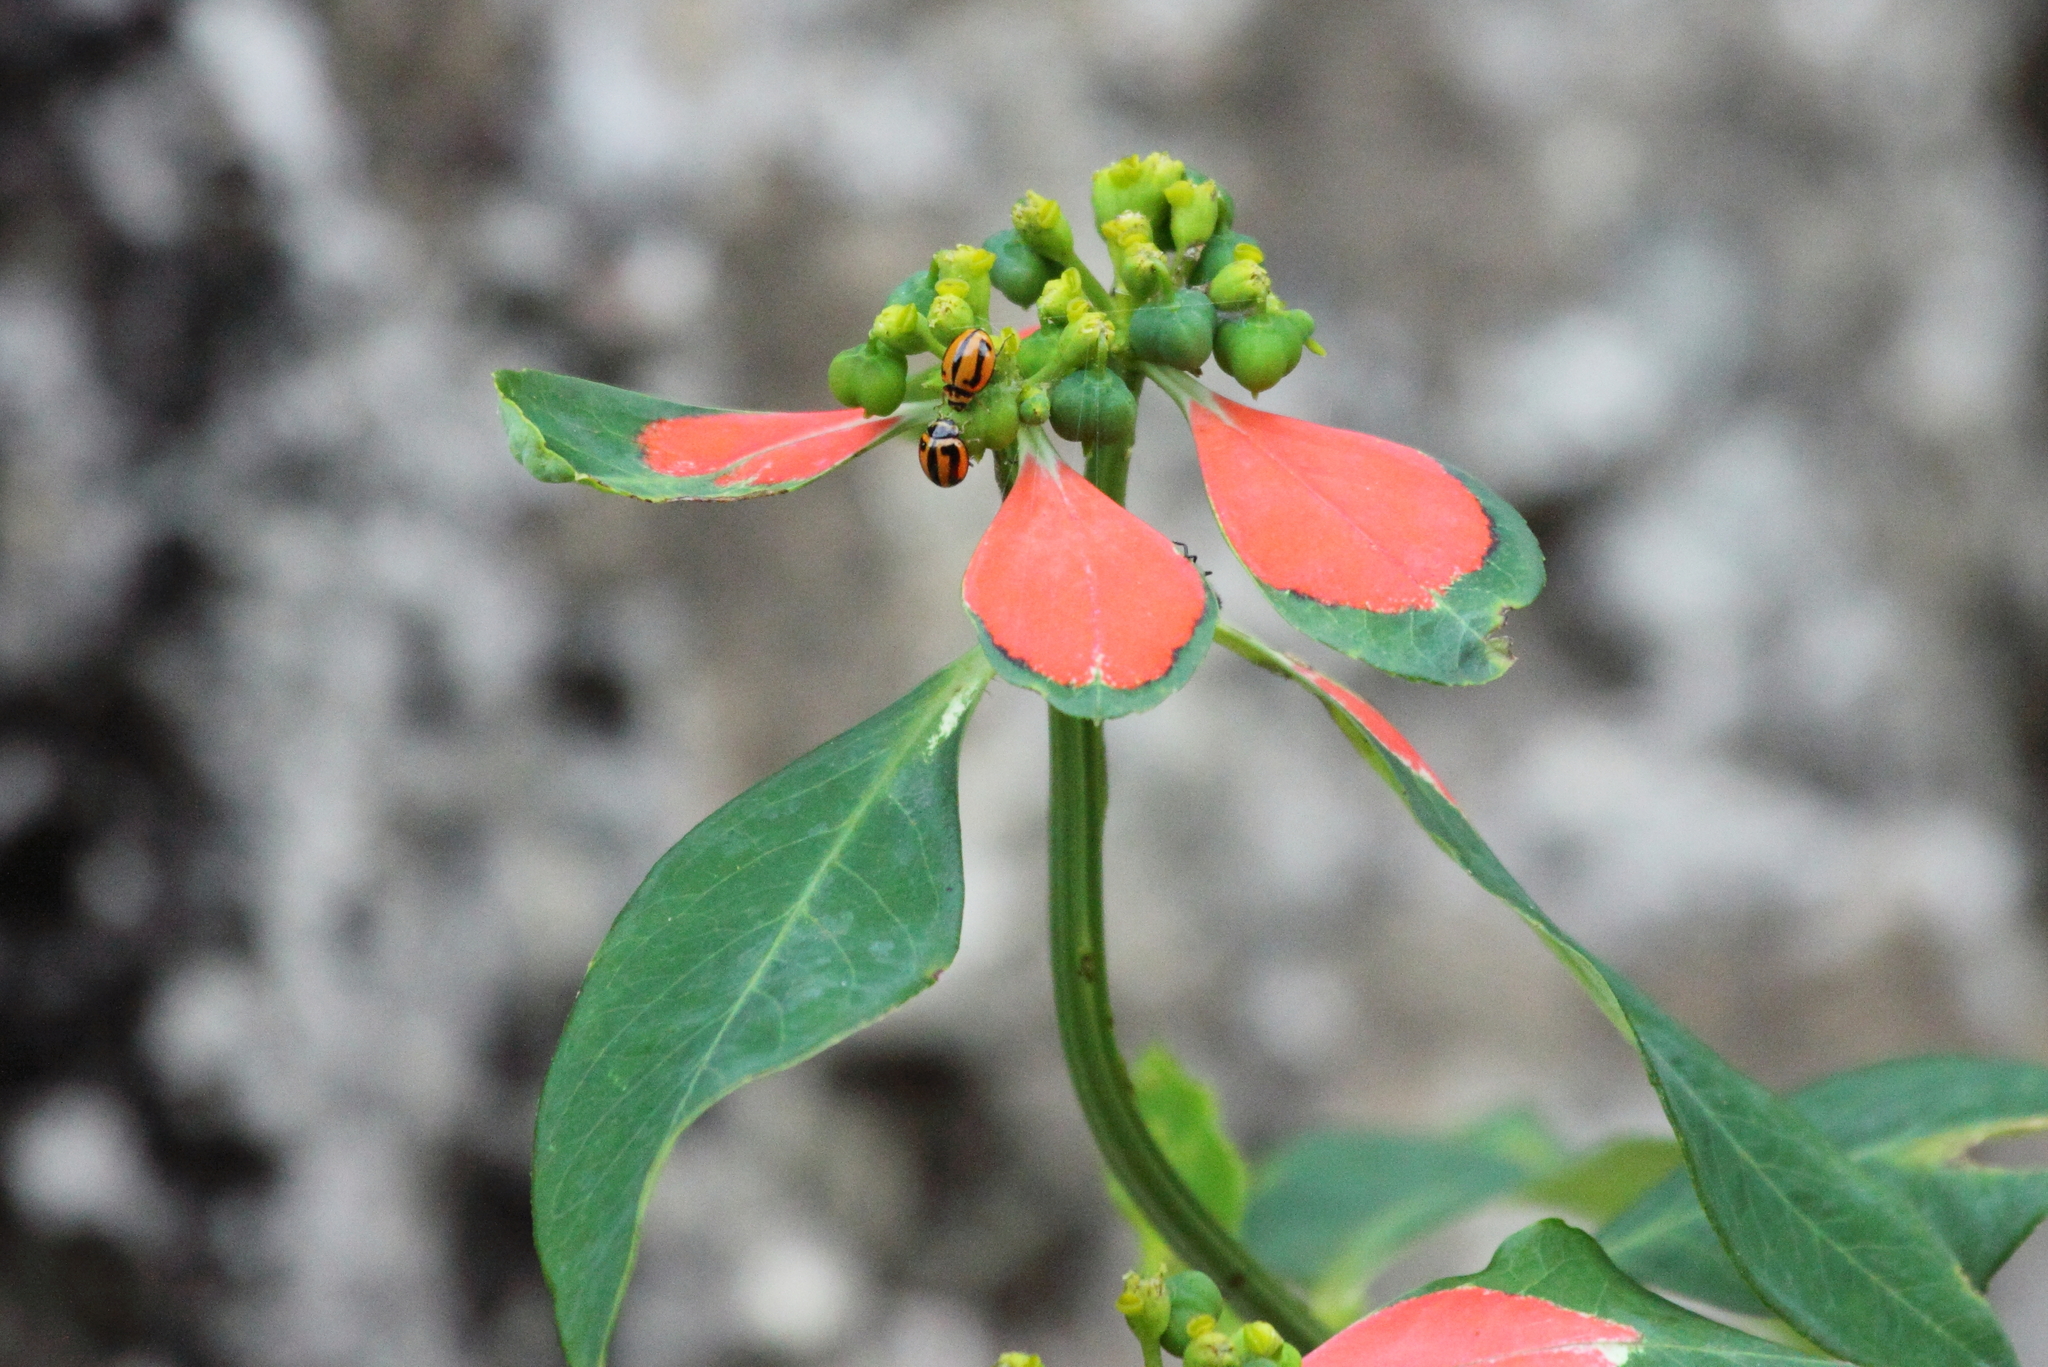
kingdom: Plantae
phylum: Tracheophyta
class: Magnoliopsida
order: Malpighiales
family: Euphorbiaceae
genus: Euphorbia
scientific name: Euphorbia heterophylla
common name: Mexican fireplant
